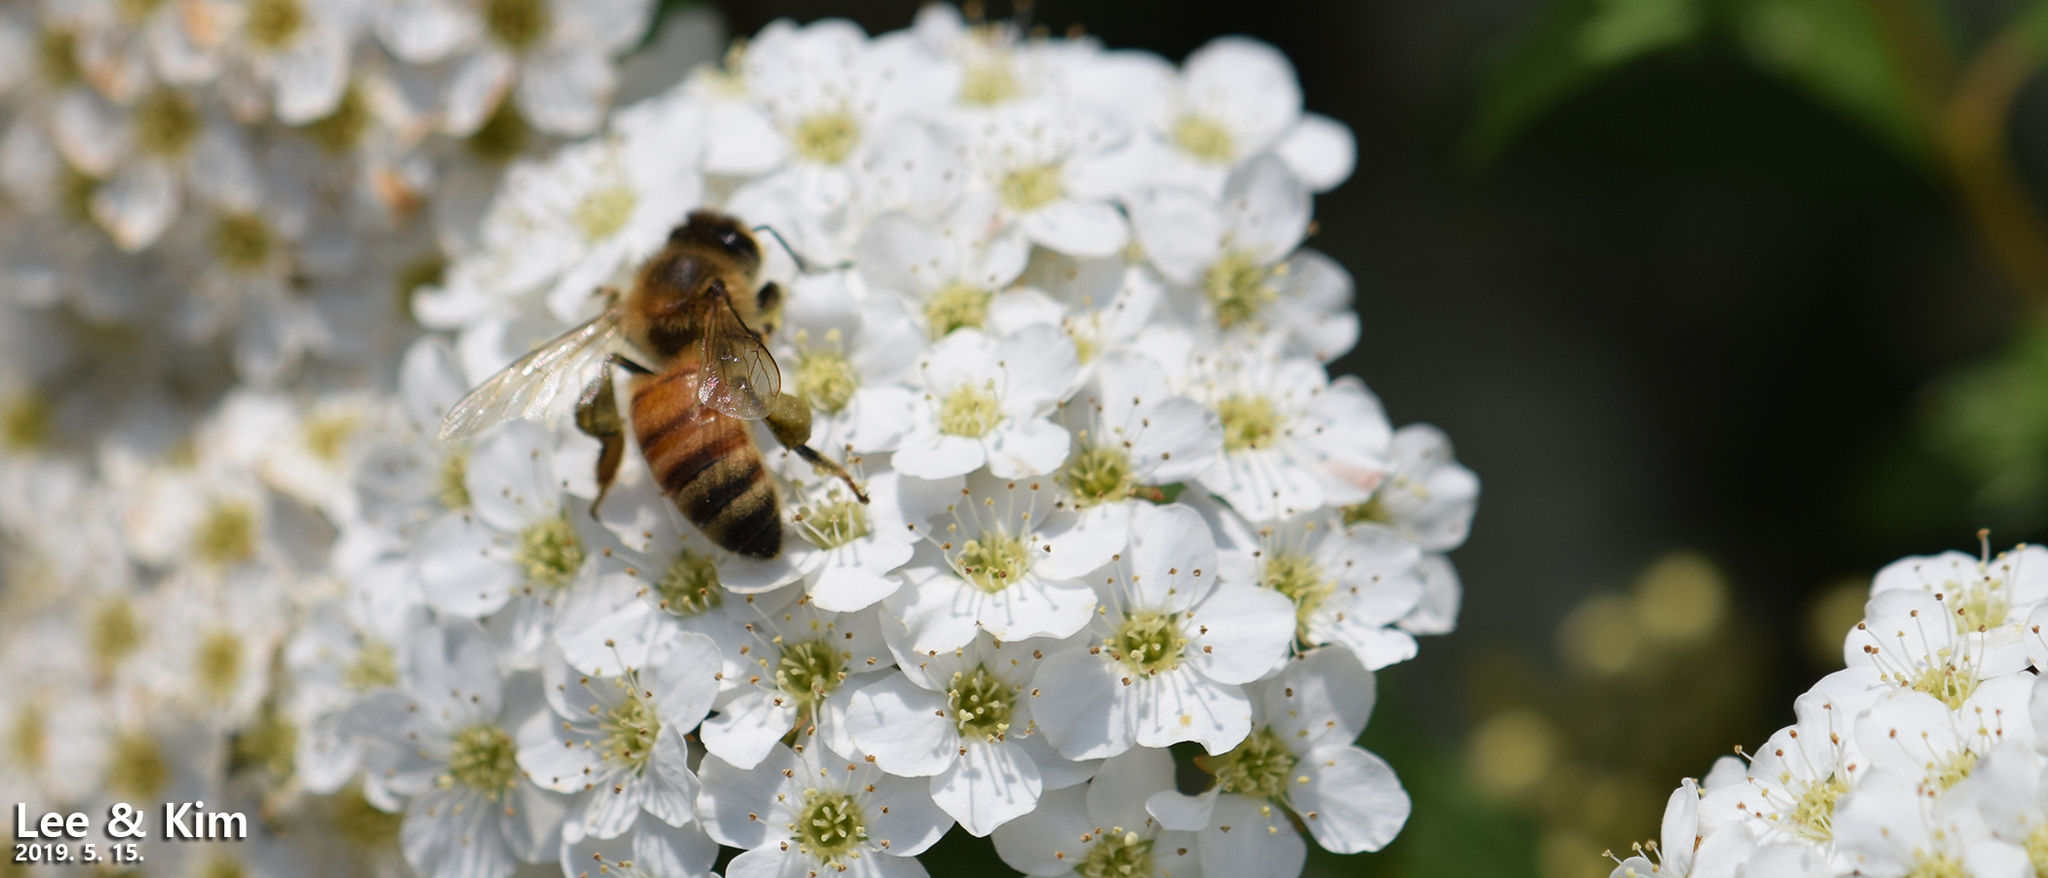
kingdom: Animalia
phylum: Arthropoda
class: Insecta
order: Hymenoptera
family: Apidae
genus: Apis
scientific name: Apis mellifera
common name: Honey bee
